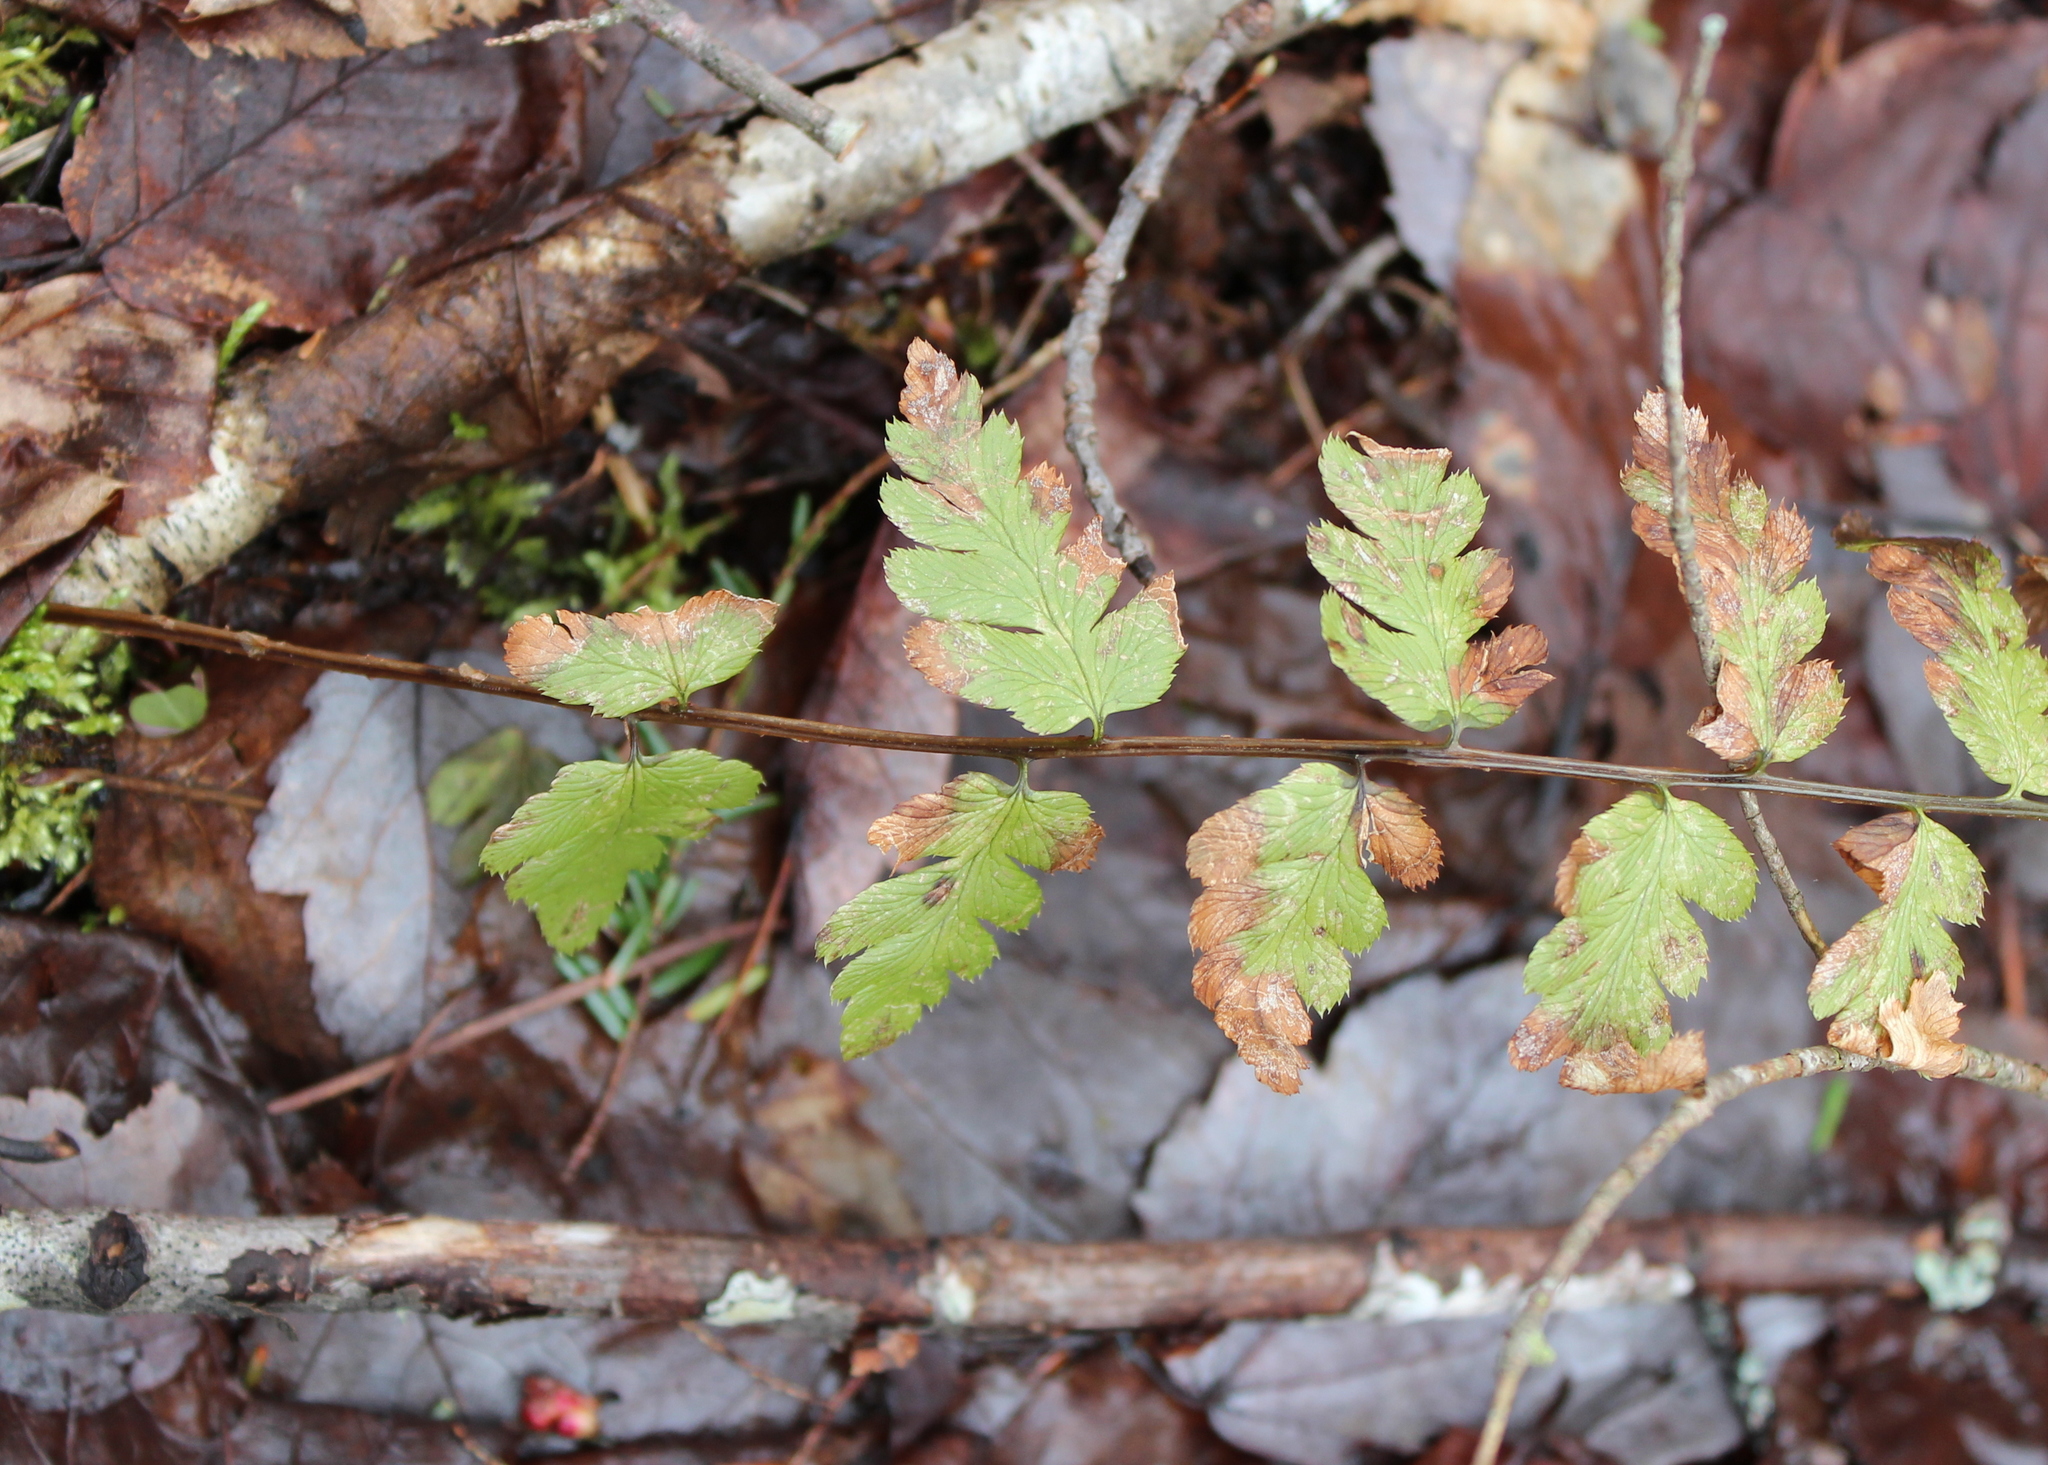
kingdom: Plantae
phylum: Tracheophyta
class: Polypodiopsida
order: Polypodiales
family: Dryopteridaceae
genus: Dryopteris
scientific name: Dryopteris cristata
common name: Crested wood fern
